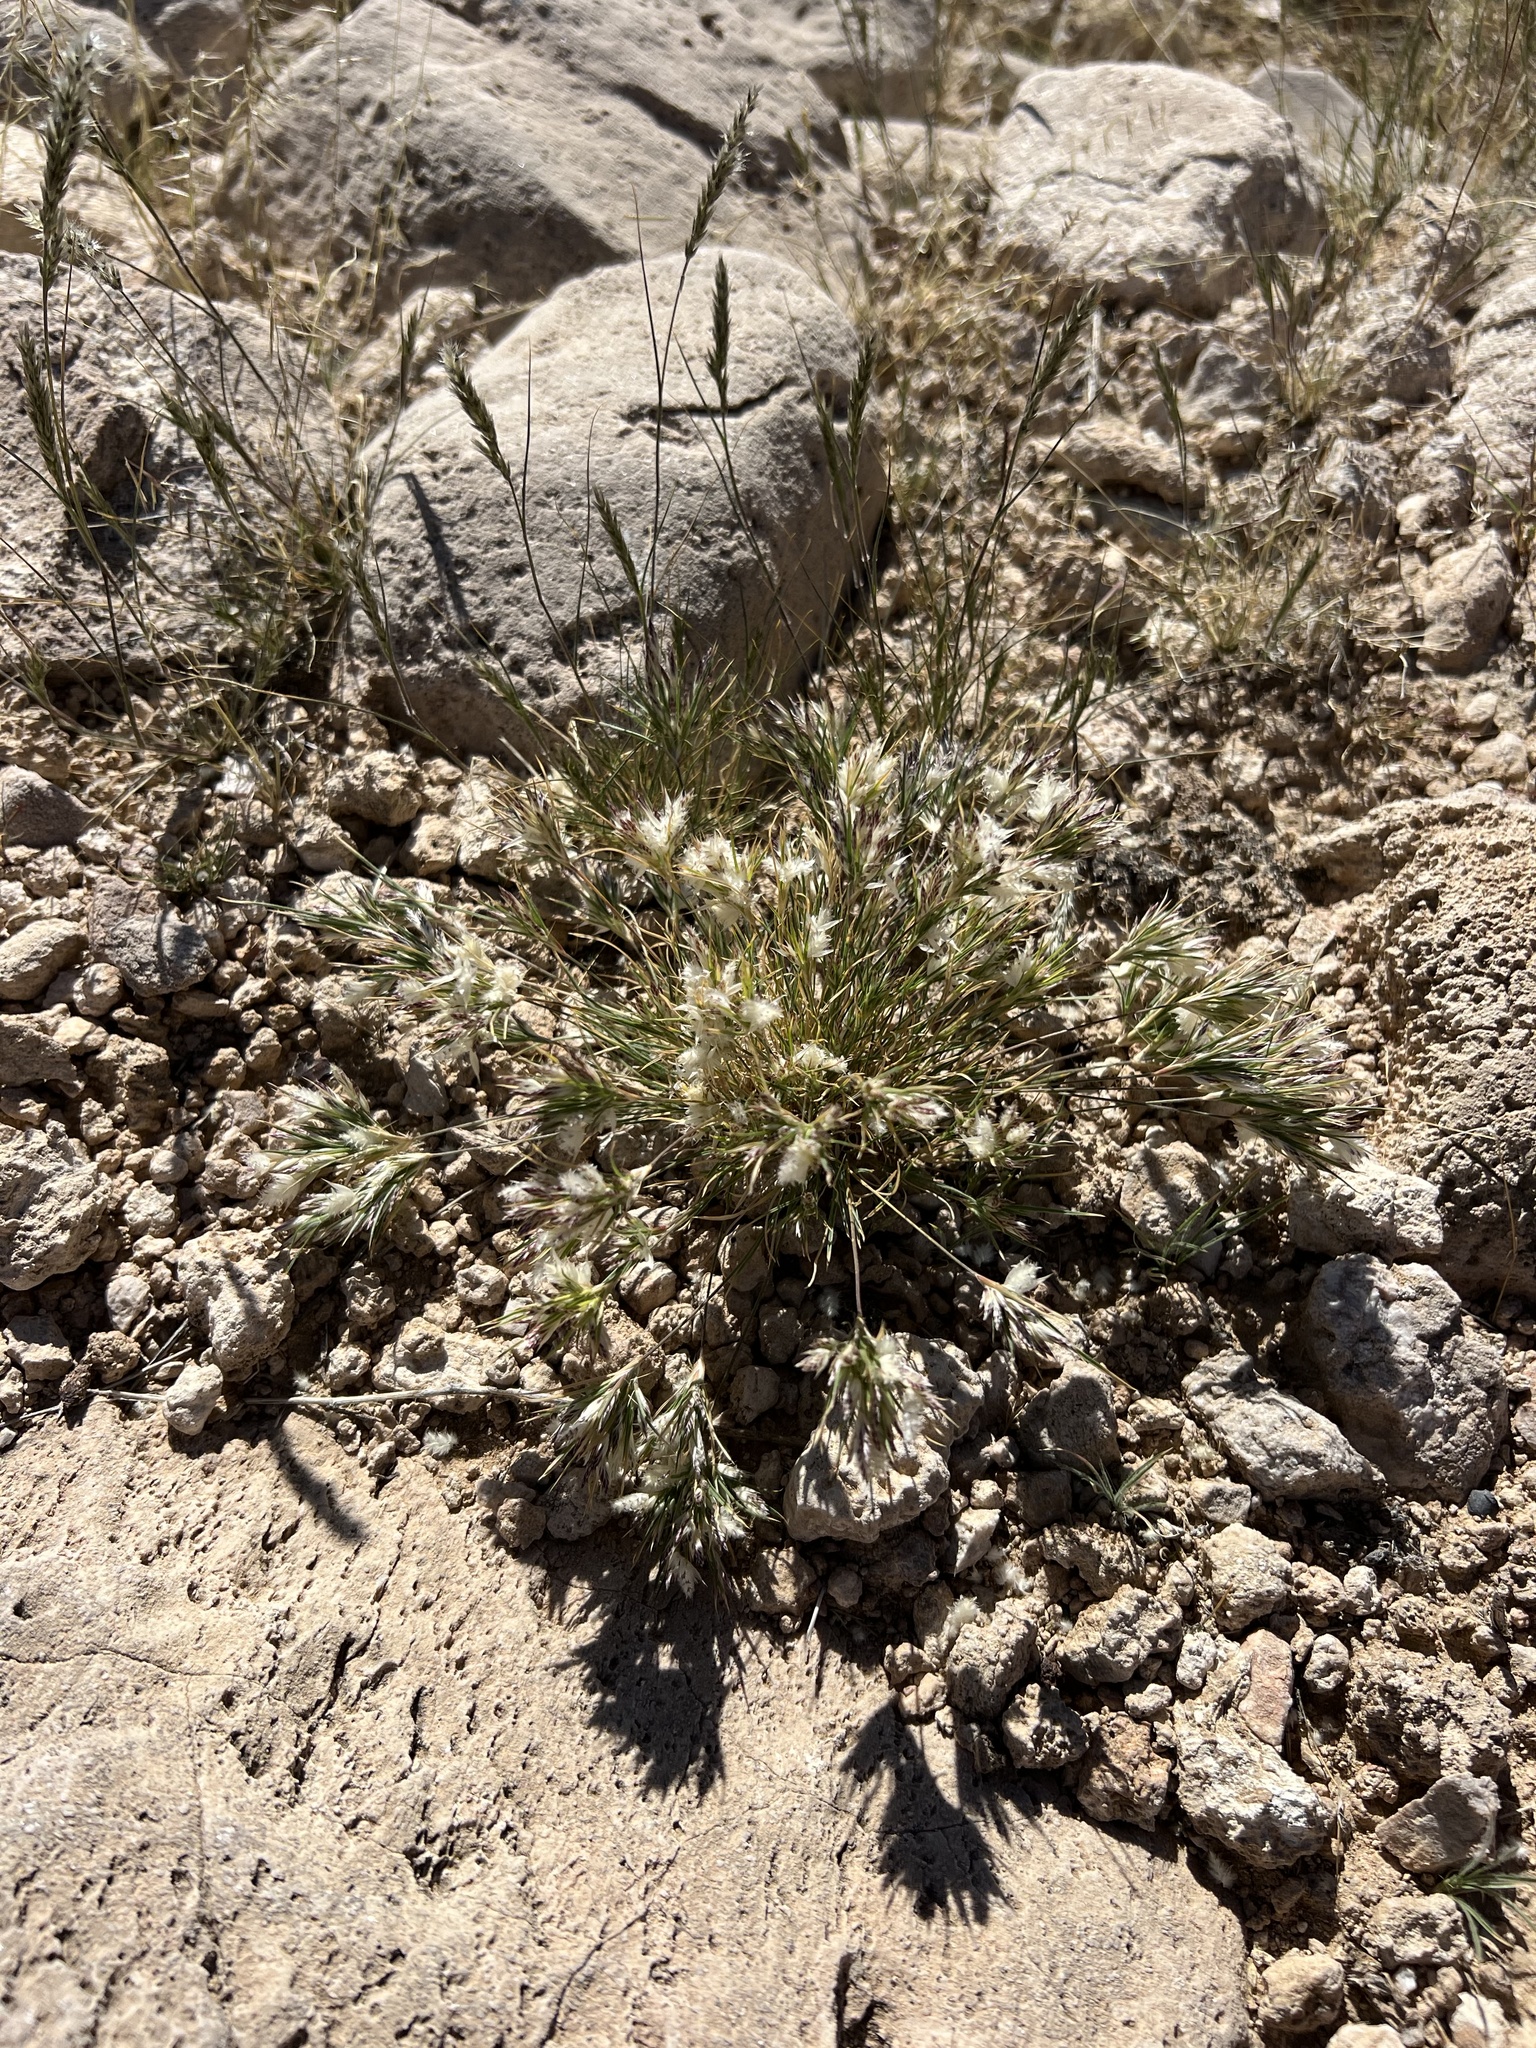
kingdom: Plantae
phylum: Tracheophyta
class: Liliopsida
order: Poales
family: Poaceae
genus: Dasyochloa
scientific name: Dasyochloa pulchella
